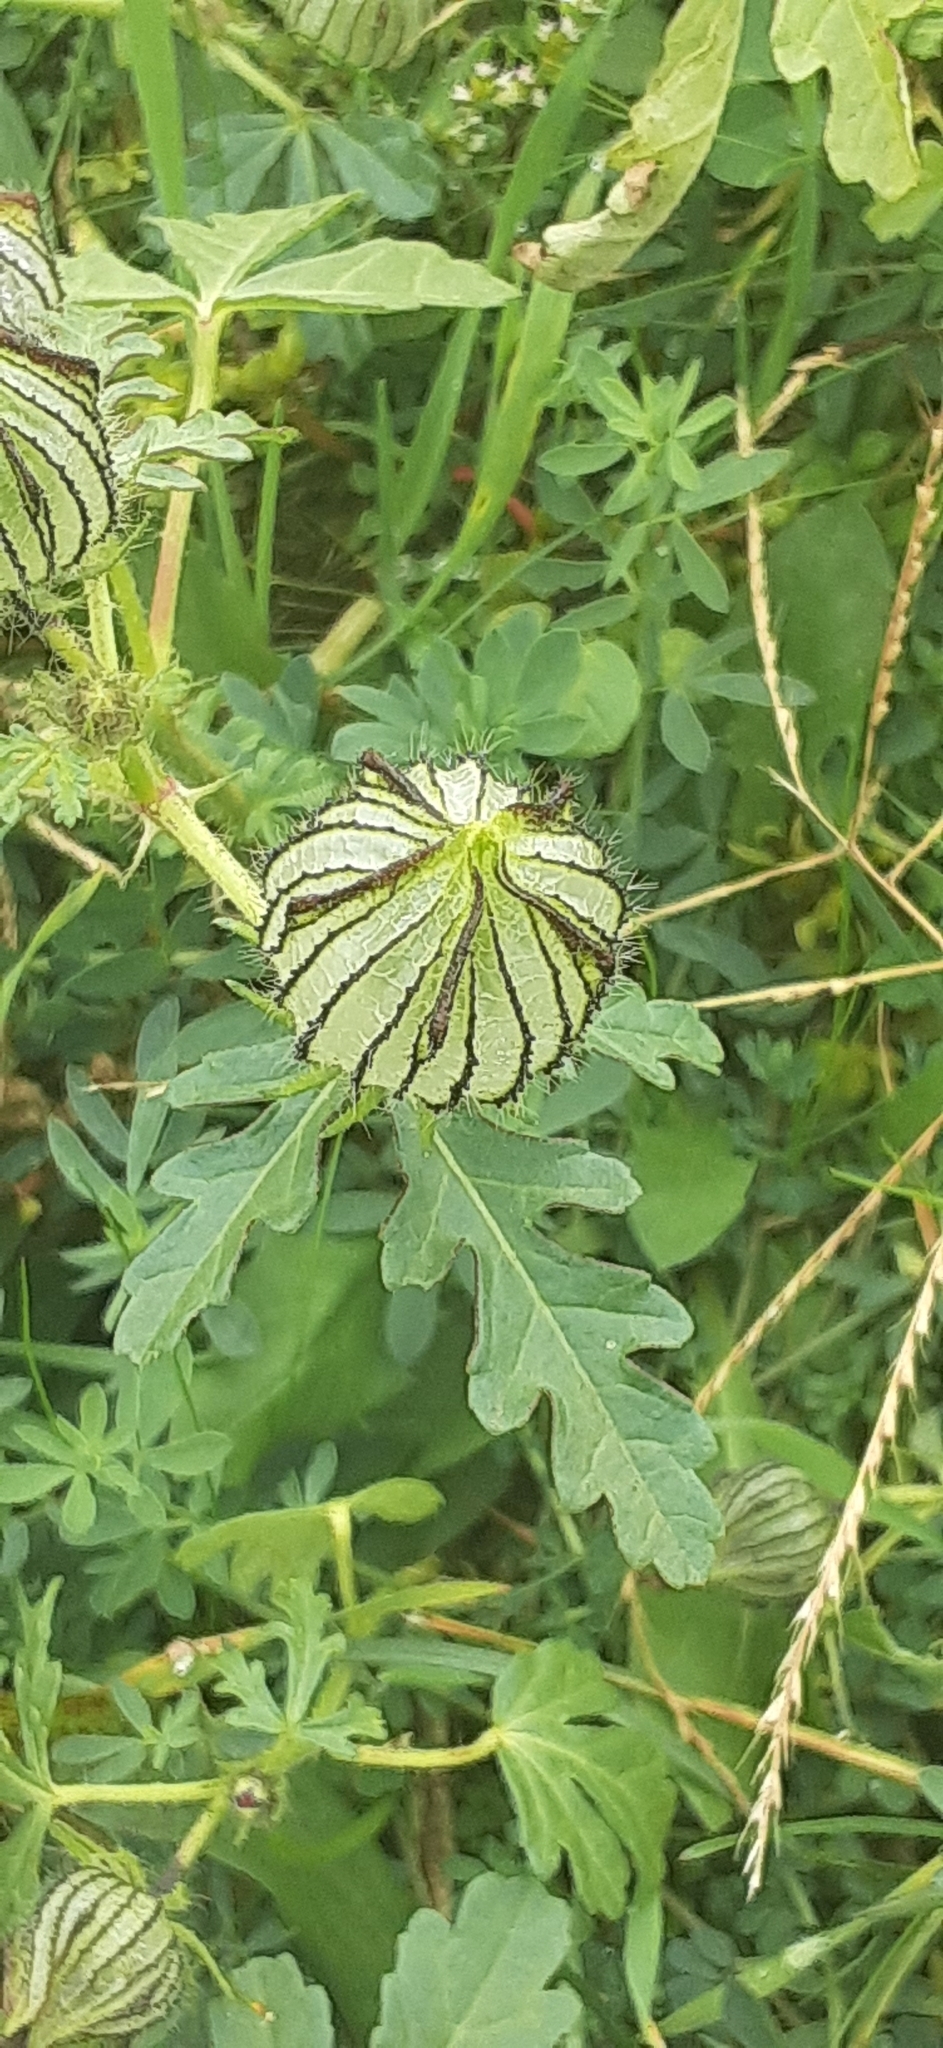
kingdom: Plantae
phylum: Tracheophyta
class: Magnoliopsida
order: Malvales
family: Malvaceae
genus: Hibiscus
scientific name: Hibiscus trionum
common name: Bladder ketmia
